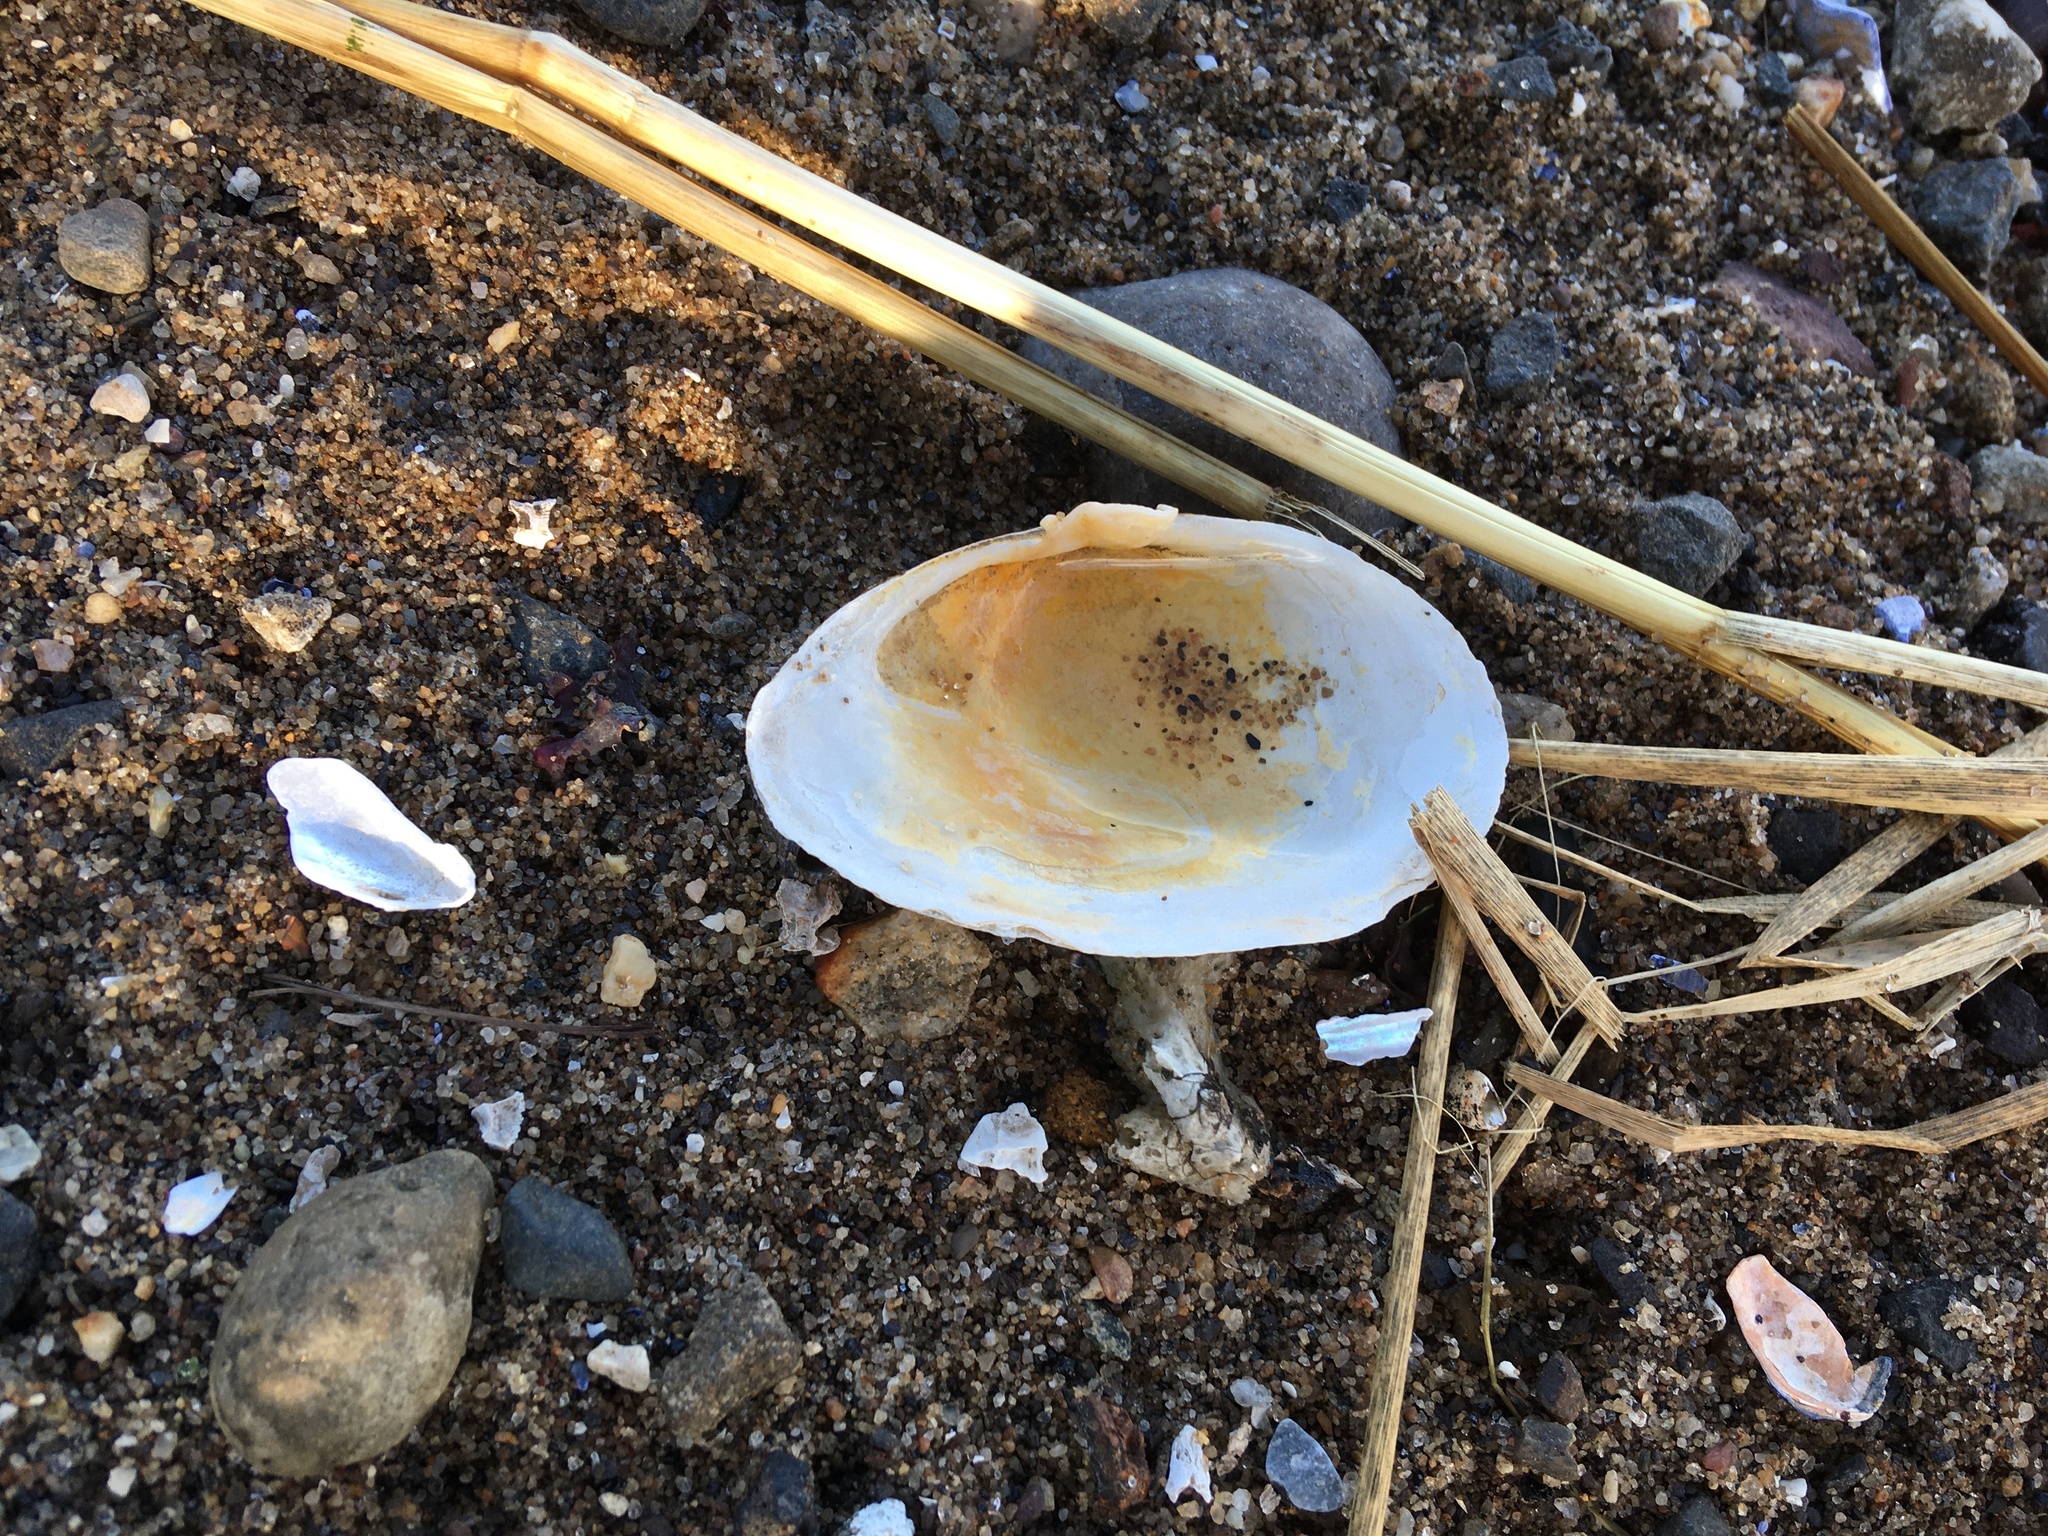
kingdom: Animalia
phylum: Mollusca
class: Bivalvia
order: Myida
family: Myidae
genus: Mya
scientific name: Mya arenaria
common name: Soft-shelled clam
